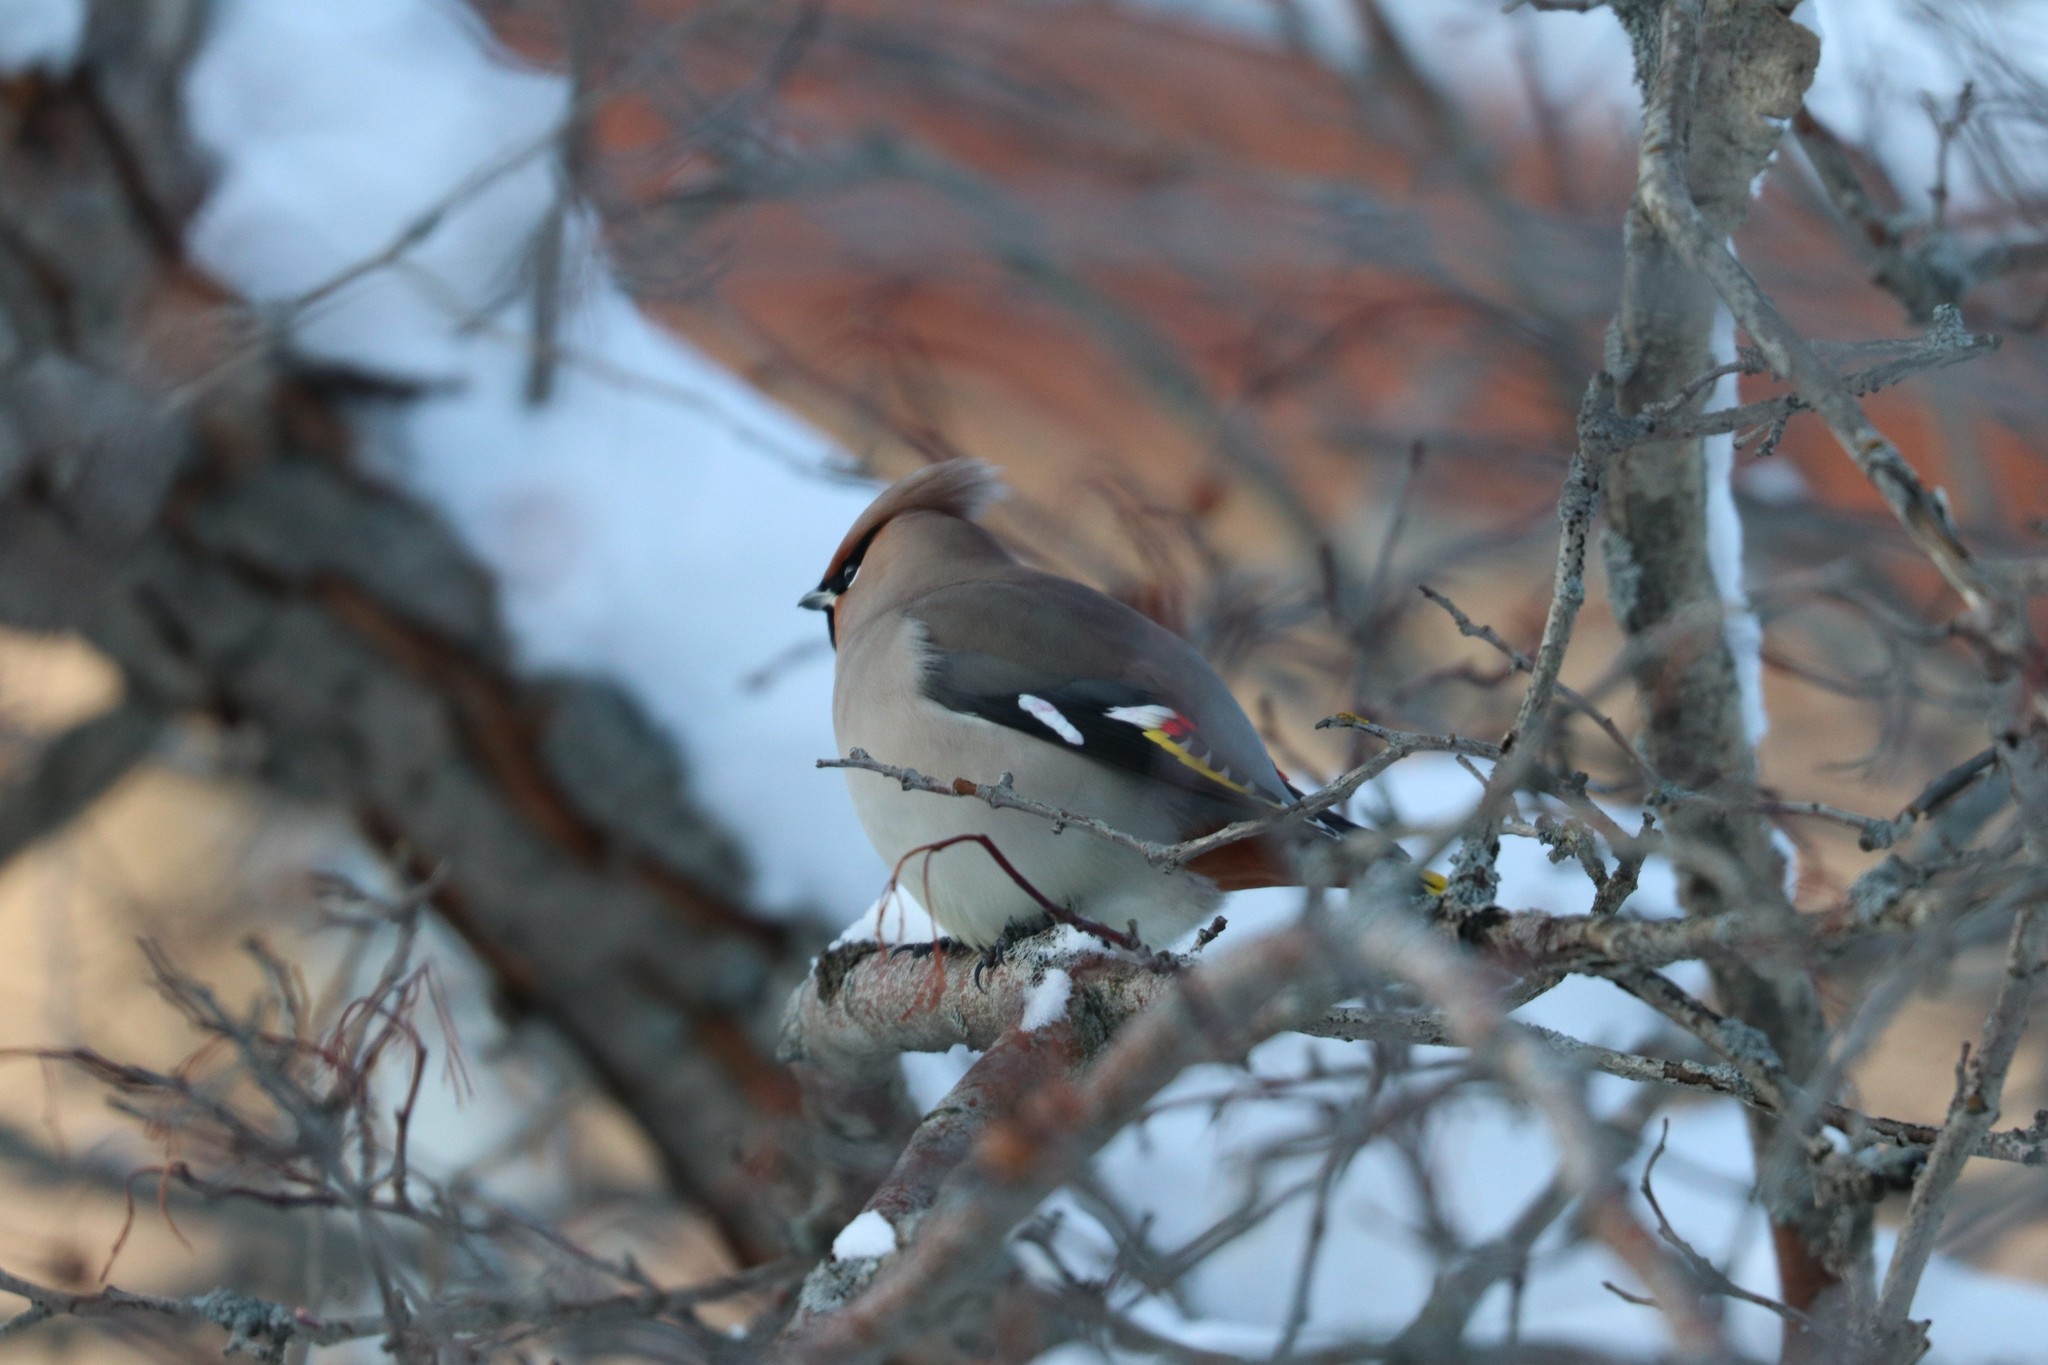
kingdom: Animalia
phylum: Chordata
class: Aves
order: Passeriformes
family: Bombycillidae
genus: Bombycilla
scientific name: Bombycilla garrulus
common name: Bohemian waxwing
